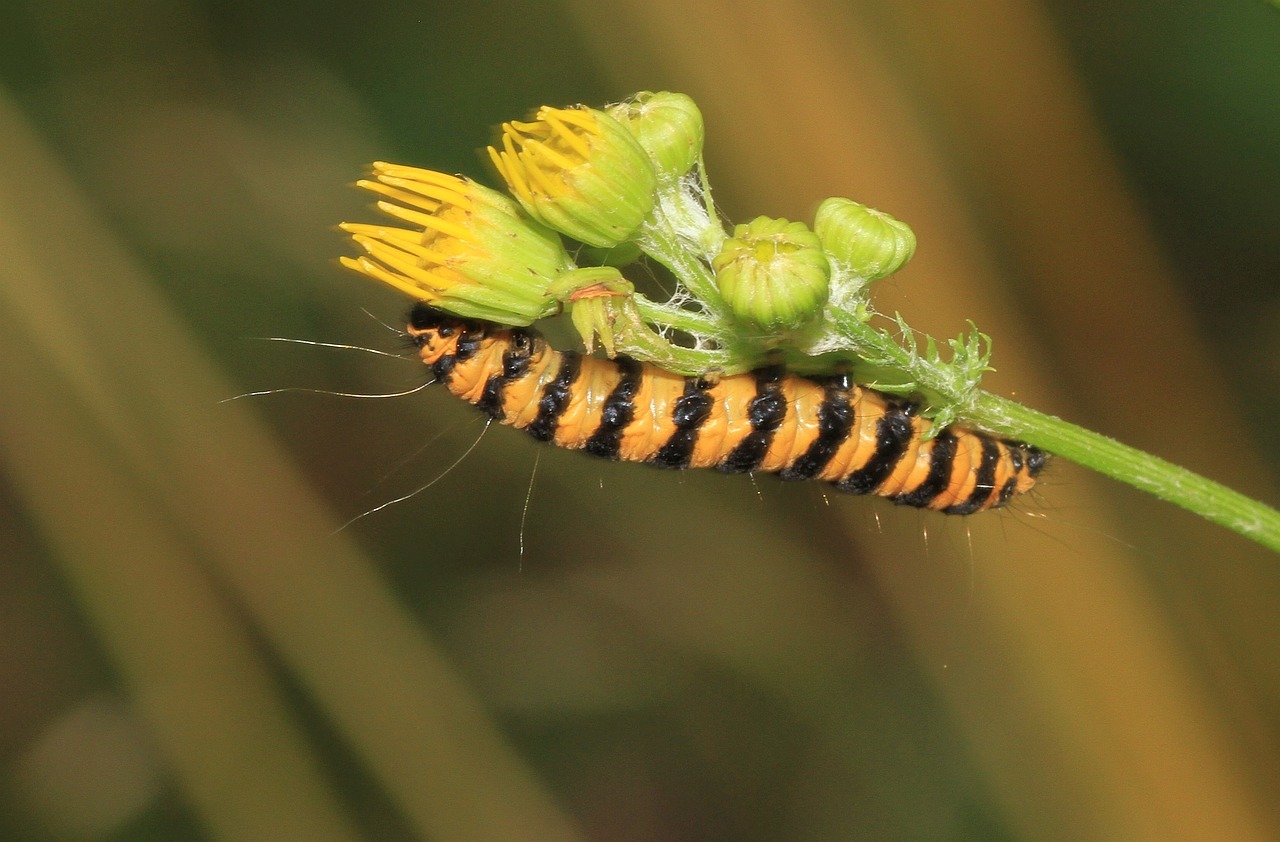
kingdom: Animalia
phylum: Arthropoda
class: Insecta
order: Lepidoptera
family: Erebidae
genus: Tyria
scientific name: Tyria jacobaeae
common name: Cinnabar
